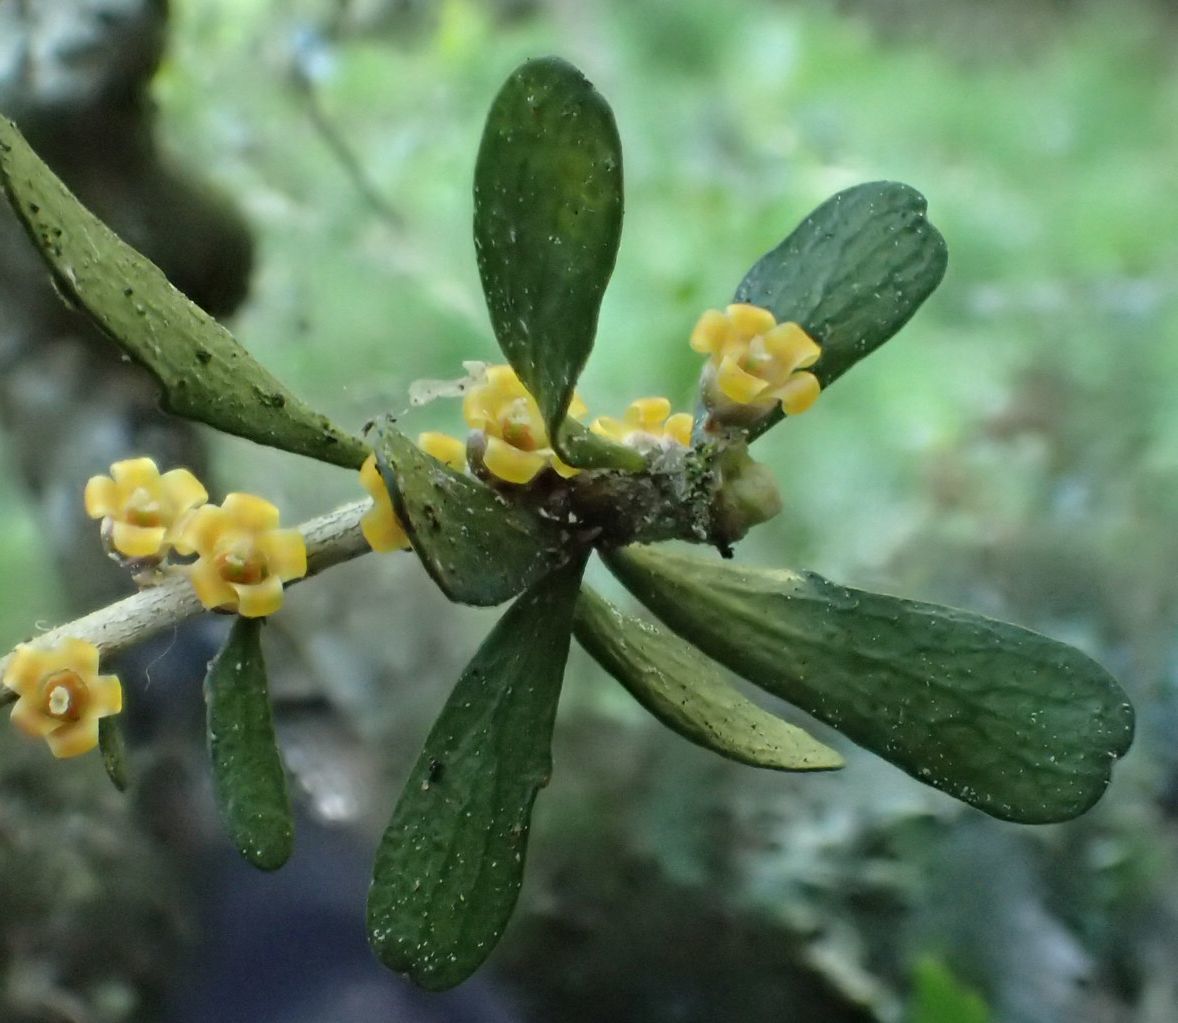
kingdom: Plantae
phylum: Tracheophyta
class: Magnoliopsida
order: Malpighiales
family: Violaceae
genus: Melicytus
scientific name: Melicytus alpinus
